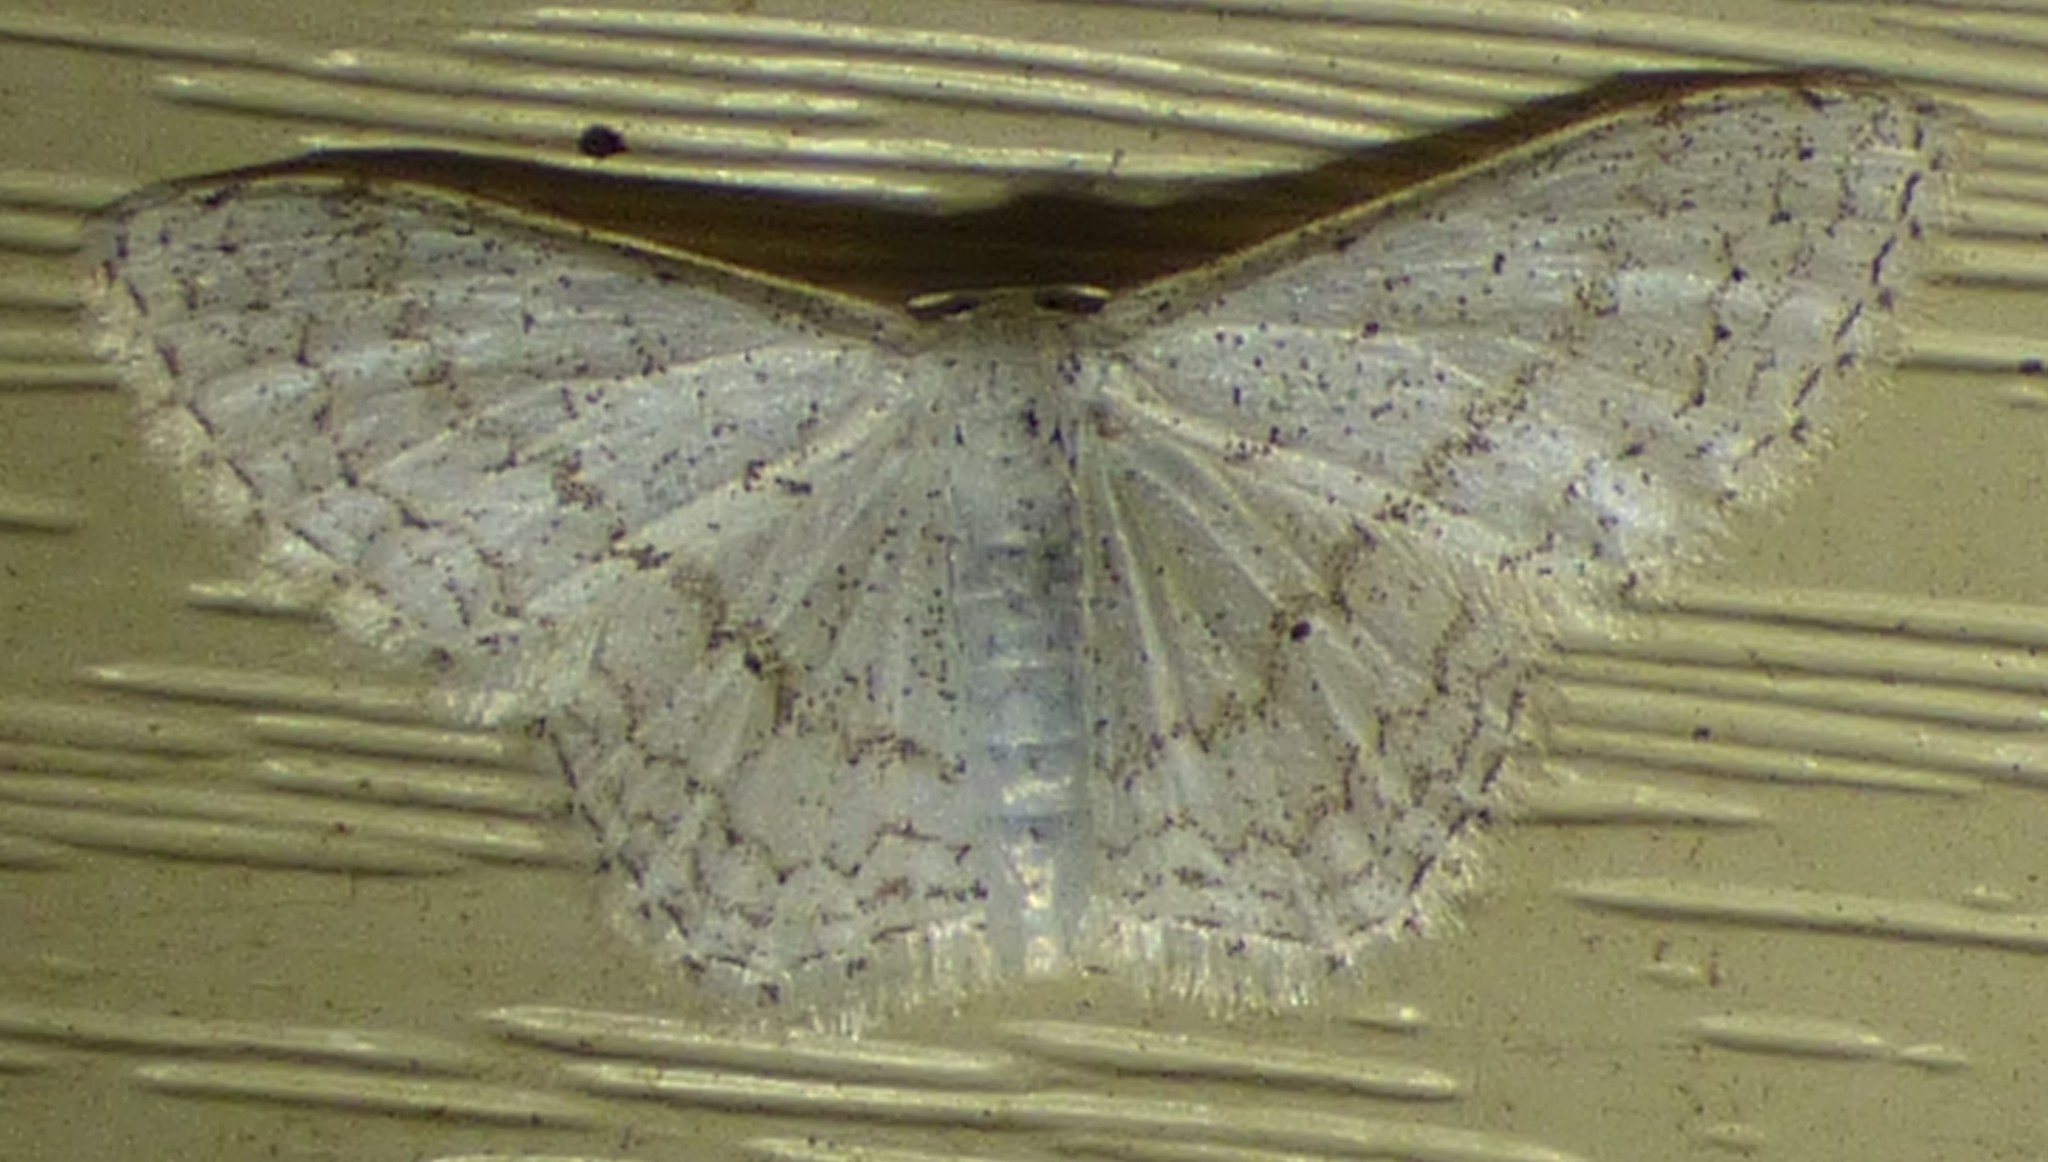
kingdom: Animalia
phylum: Arthropoda
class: Insecta
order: Lepidoptera
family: Geometridae
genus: Idaea
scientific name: Idaea tacturata
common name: Dot-lined wave
